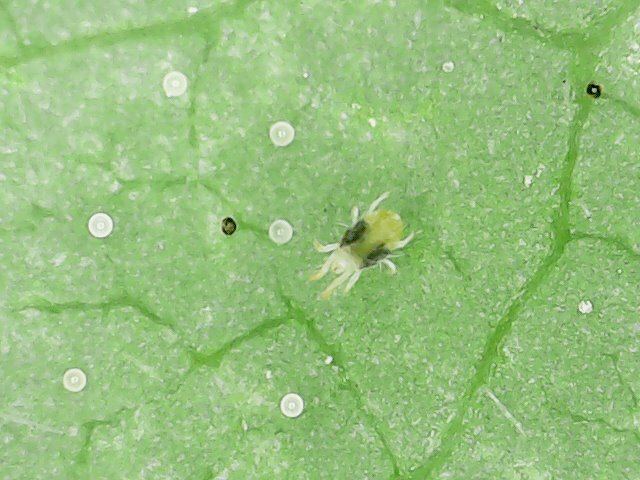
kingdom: Animalia
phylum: Arthropoda
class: Arachnida
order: Trombidiformes
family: Tetranychidae
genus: Tetranychus
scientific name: Tetranychus urticae
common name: Carmine spider mite
